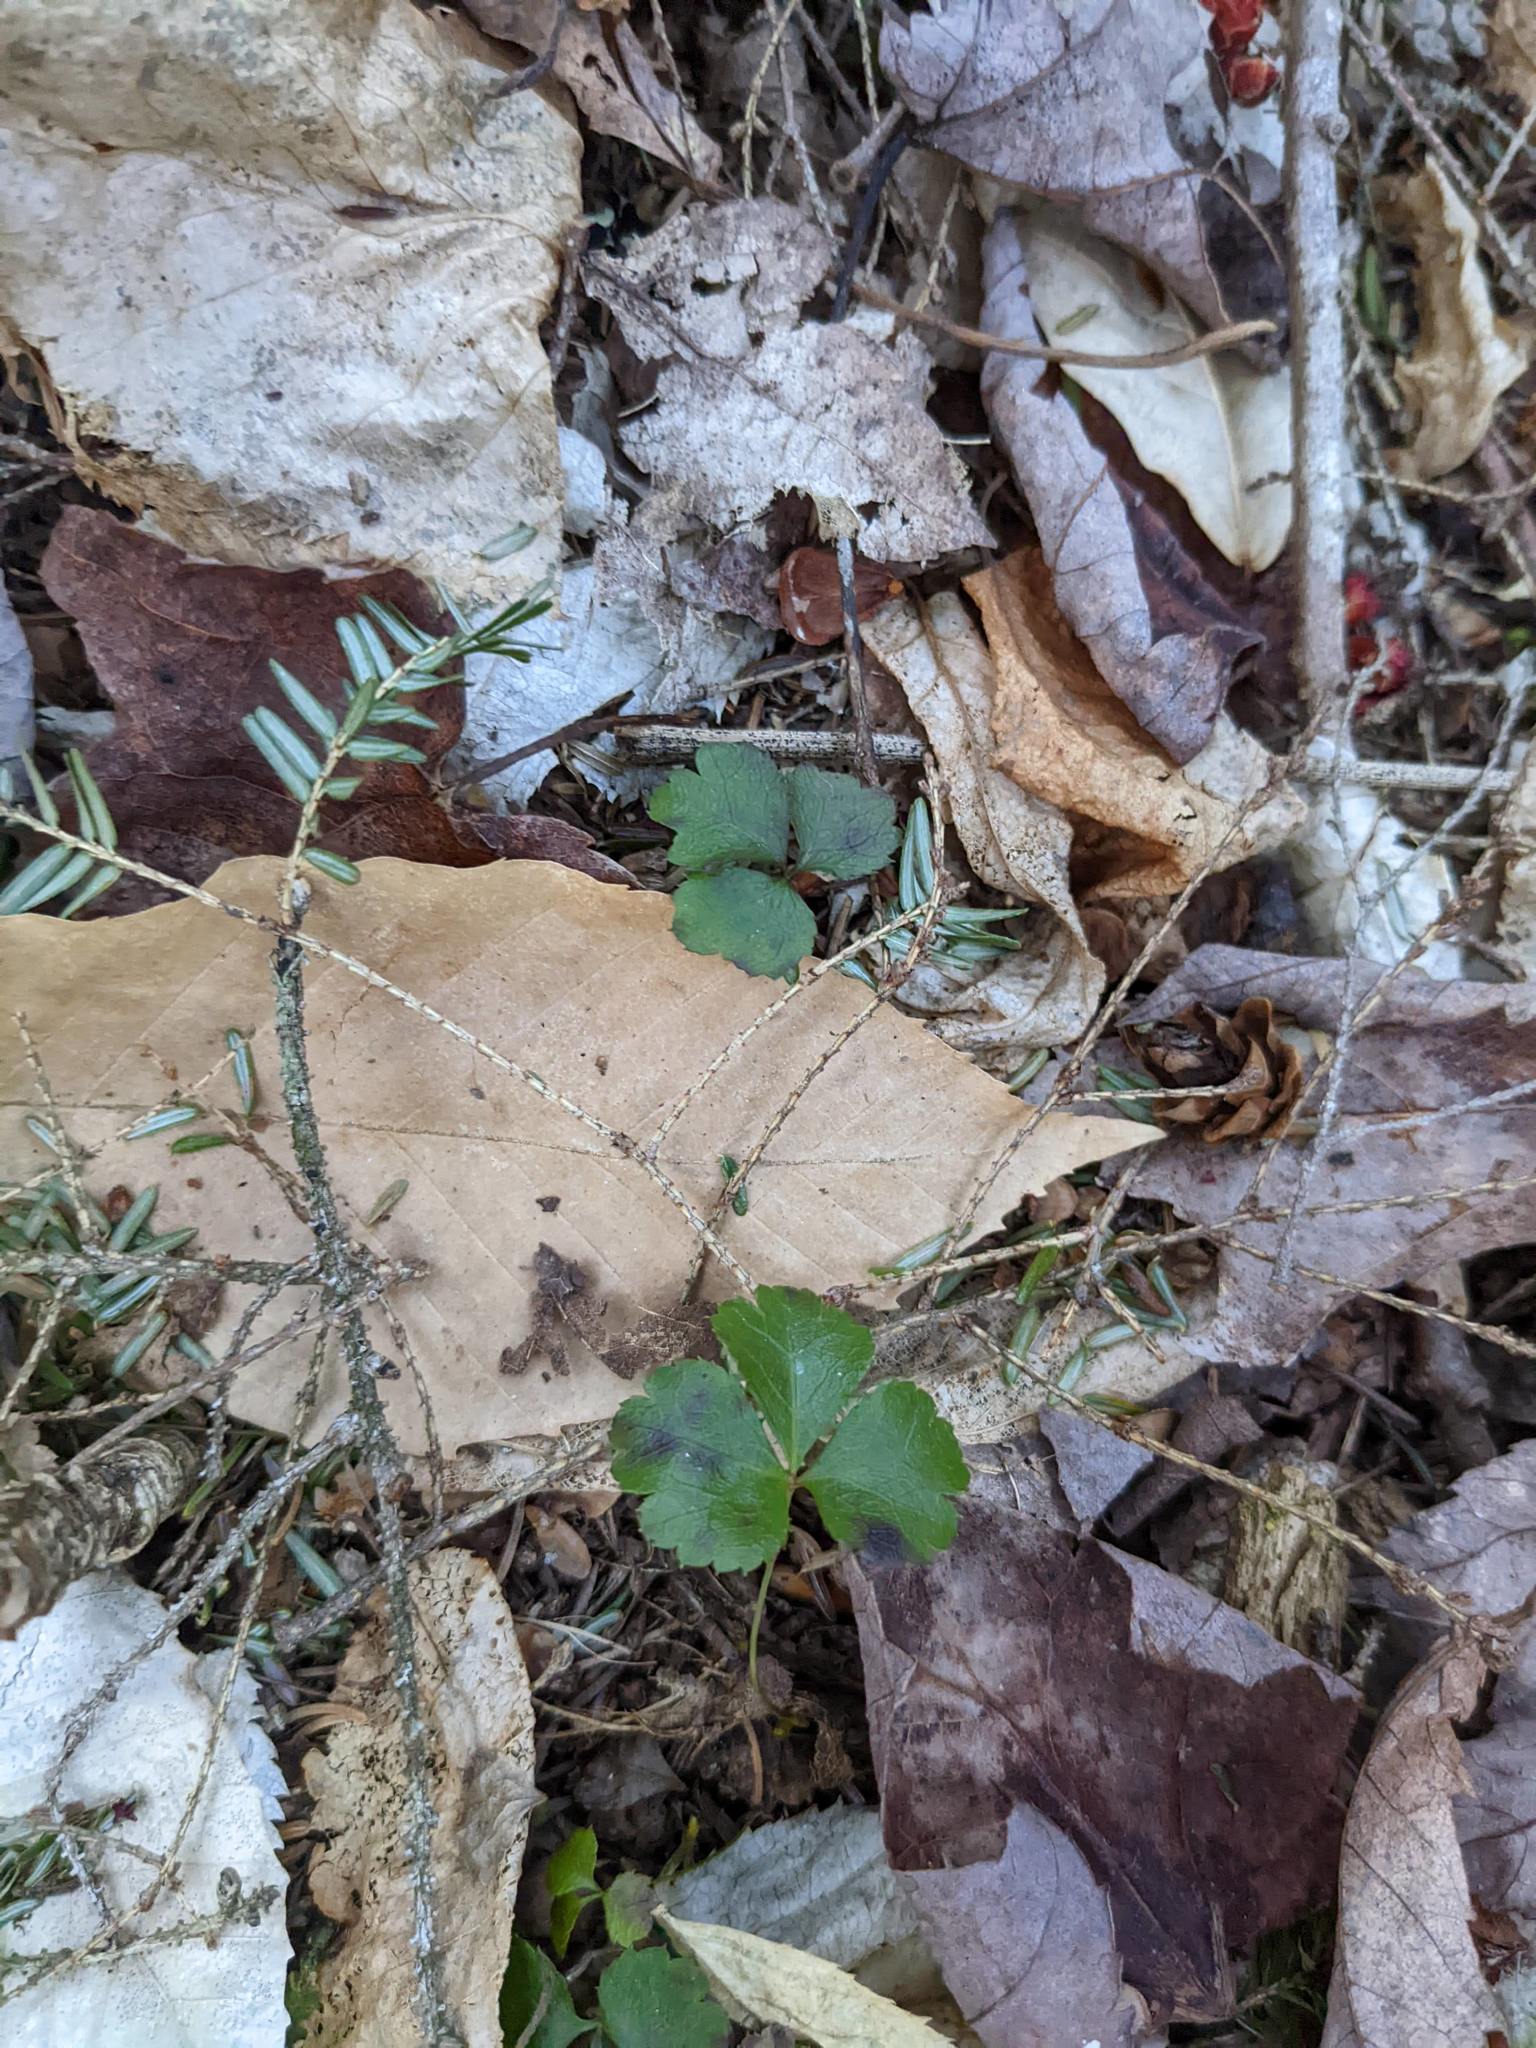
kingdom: Plantae
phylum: Tracheophyta
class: Magnoliopsida
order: Ranunculales
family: Ranunculaceae
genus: Coptis
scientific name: Coptis trifolia
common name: Canker-root
